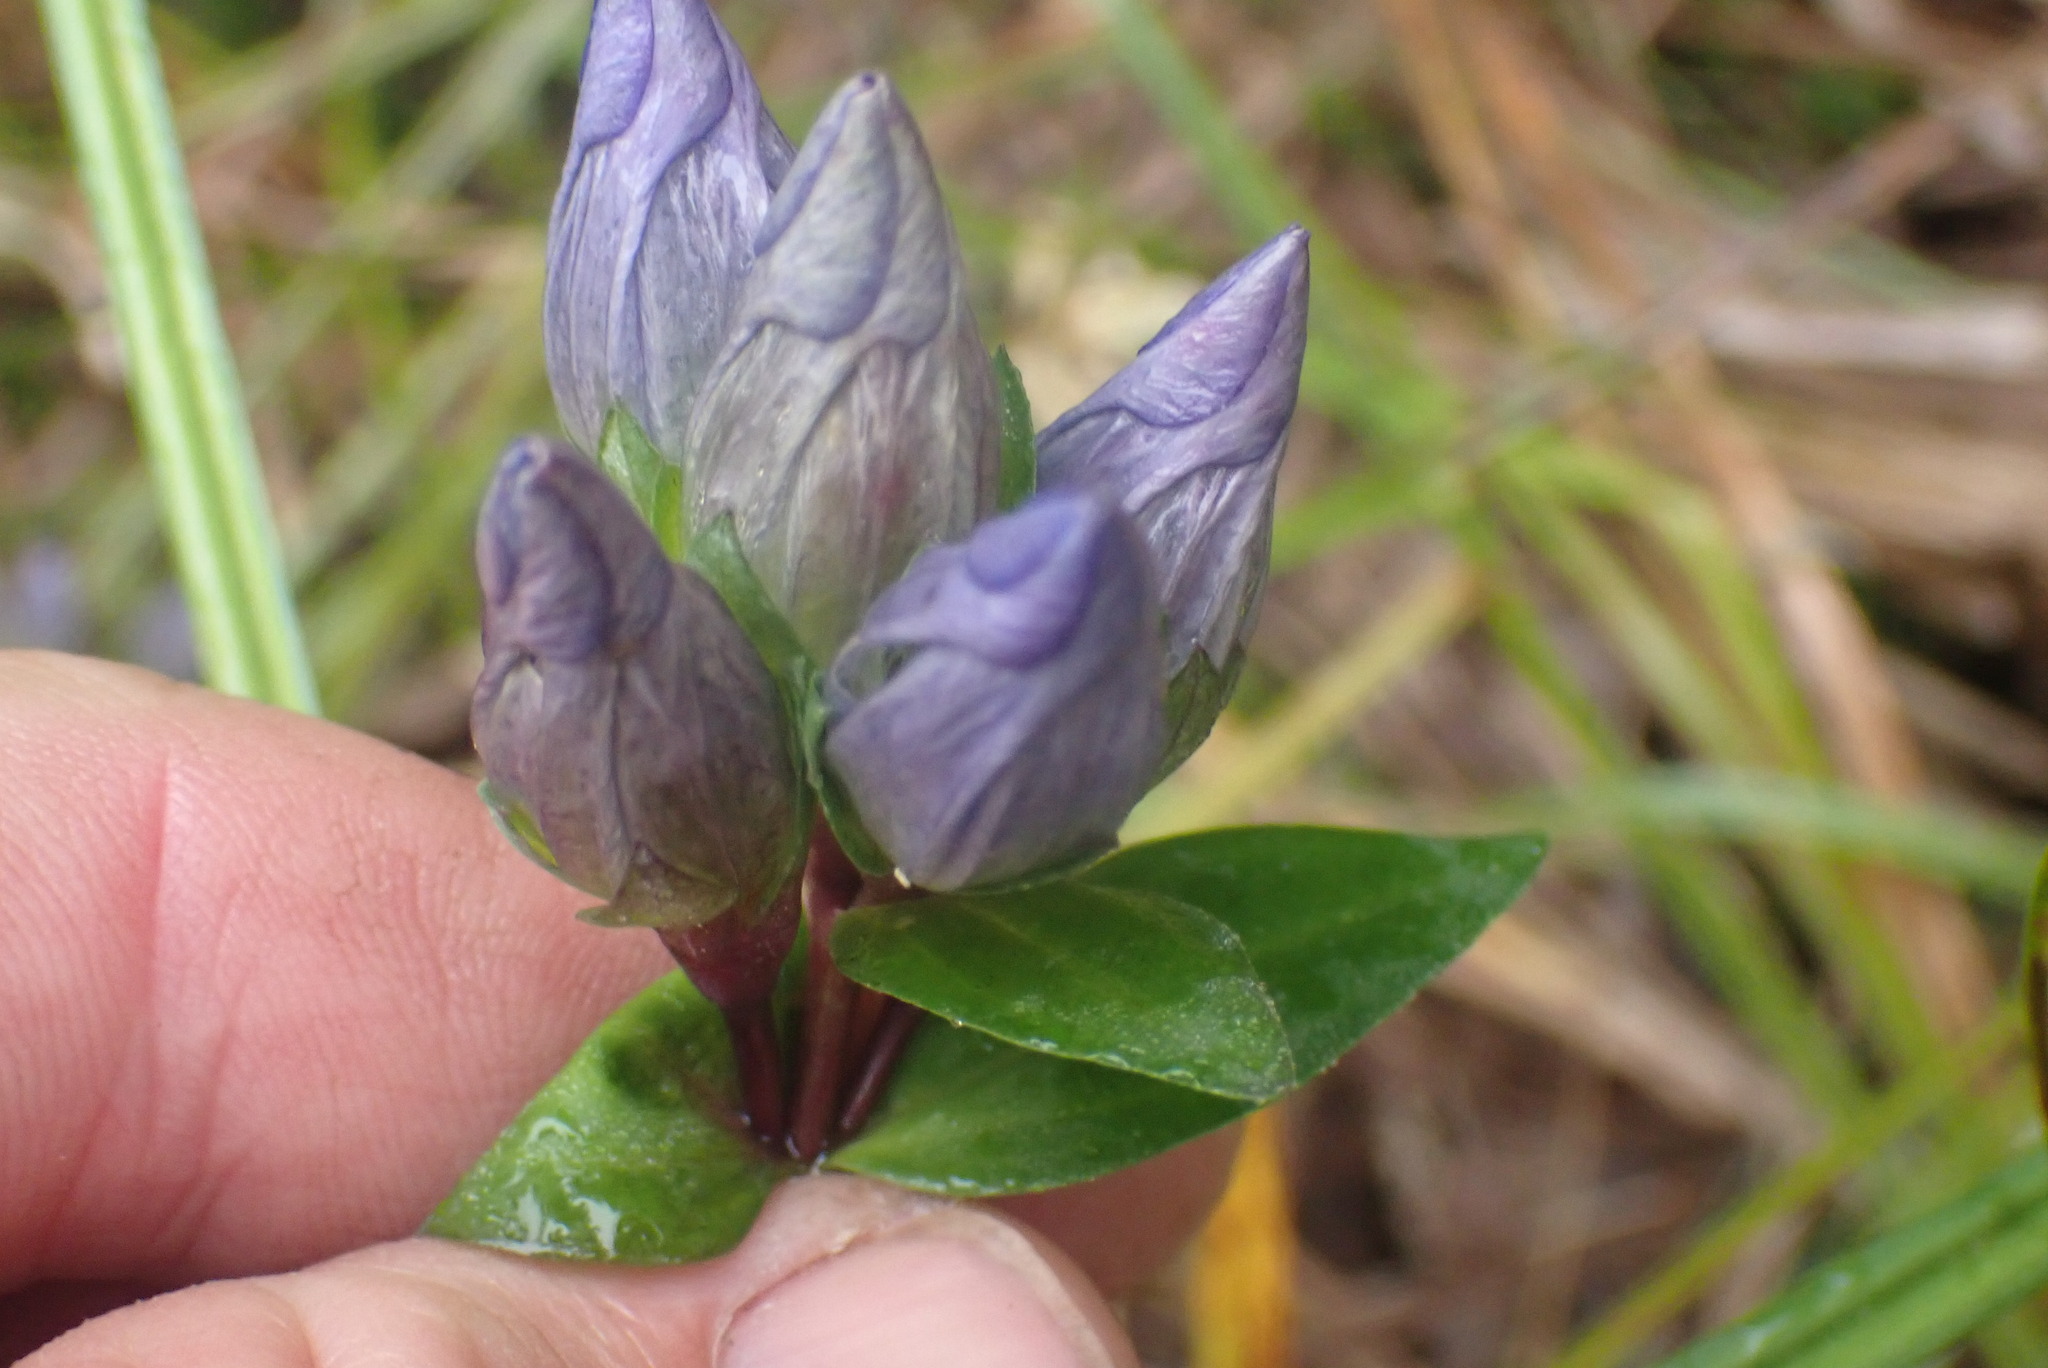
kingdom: Plantae
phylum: Tracheophyta
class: Magnoliopsida
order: Gentianales
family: Gentianaceae
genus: Gentiana
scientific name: Gentiana sceptrum
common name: Pacific gentian
